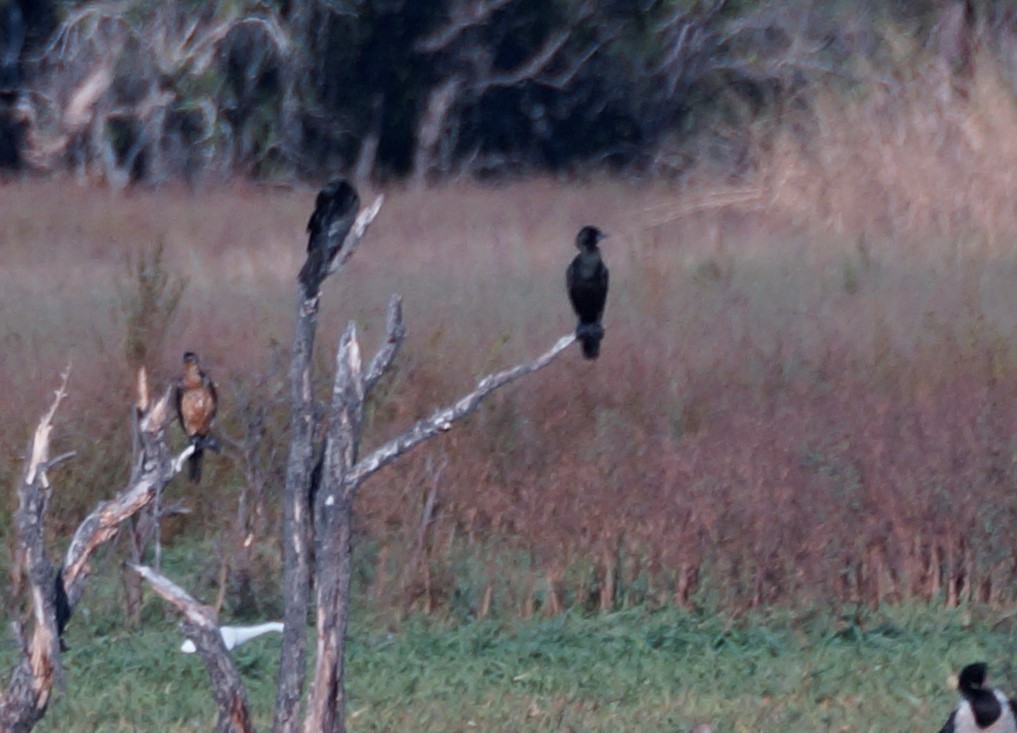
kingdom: Animalia
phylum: Chordata
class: Aves
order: Suliformes
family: Phalacrocoracidae
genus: Phalacrocorax
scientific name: Phalacrocorax sulcirostris
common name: Little black cormorant
